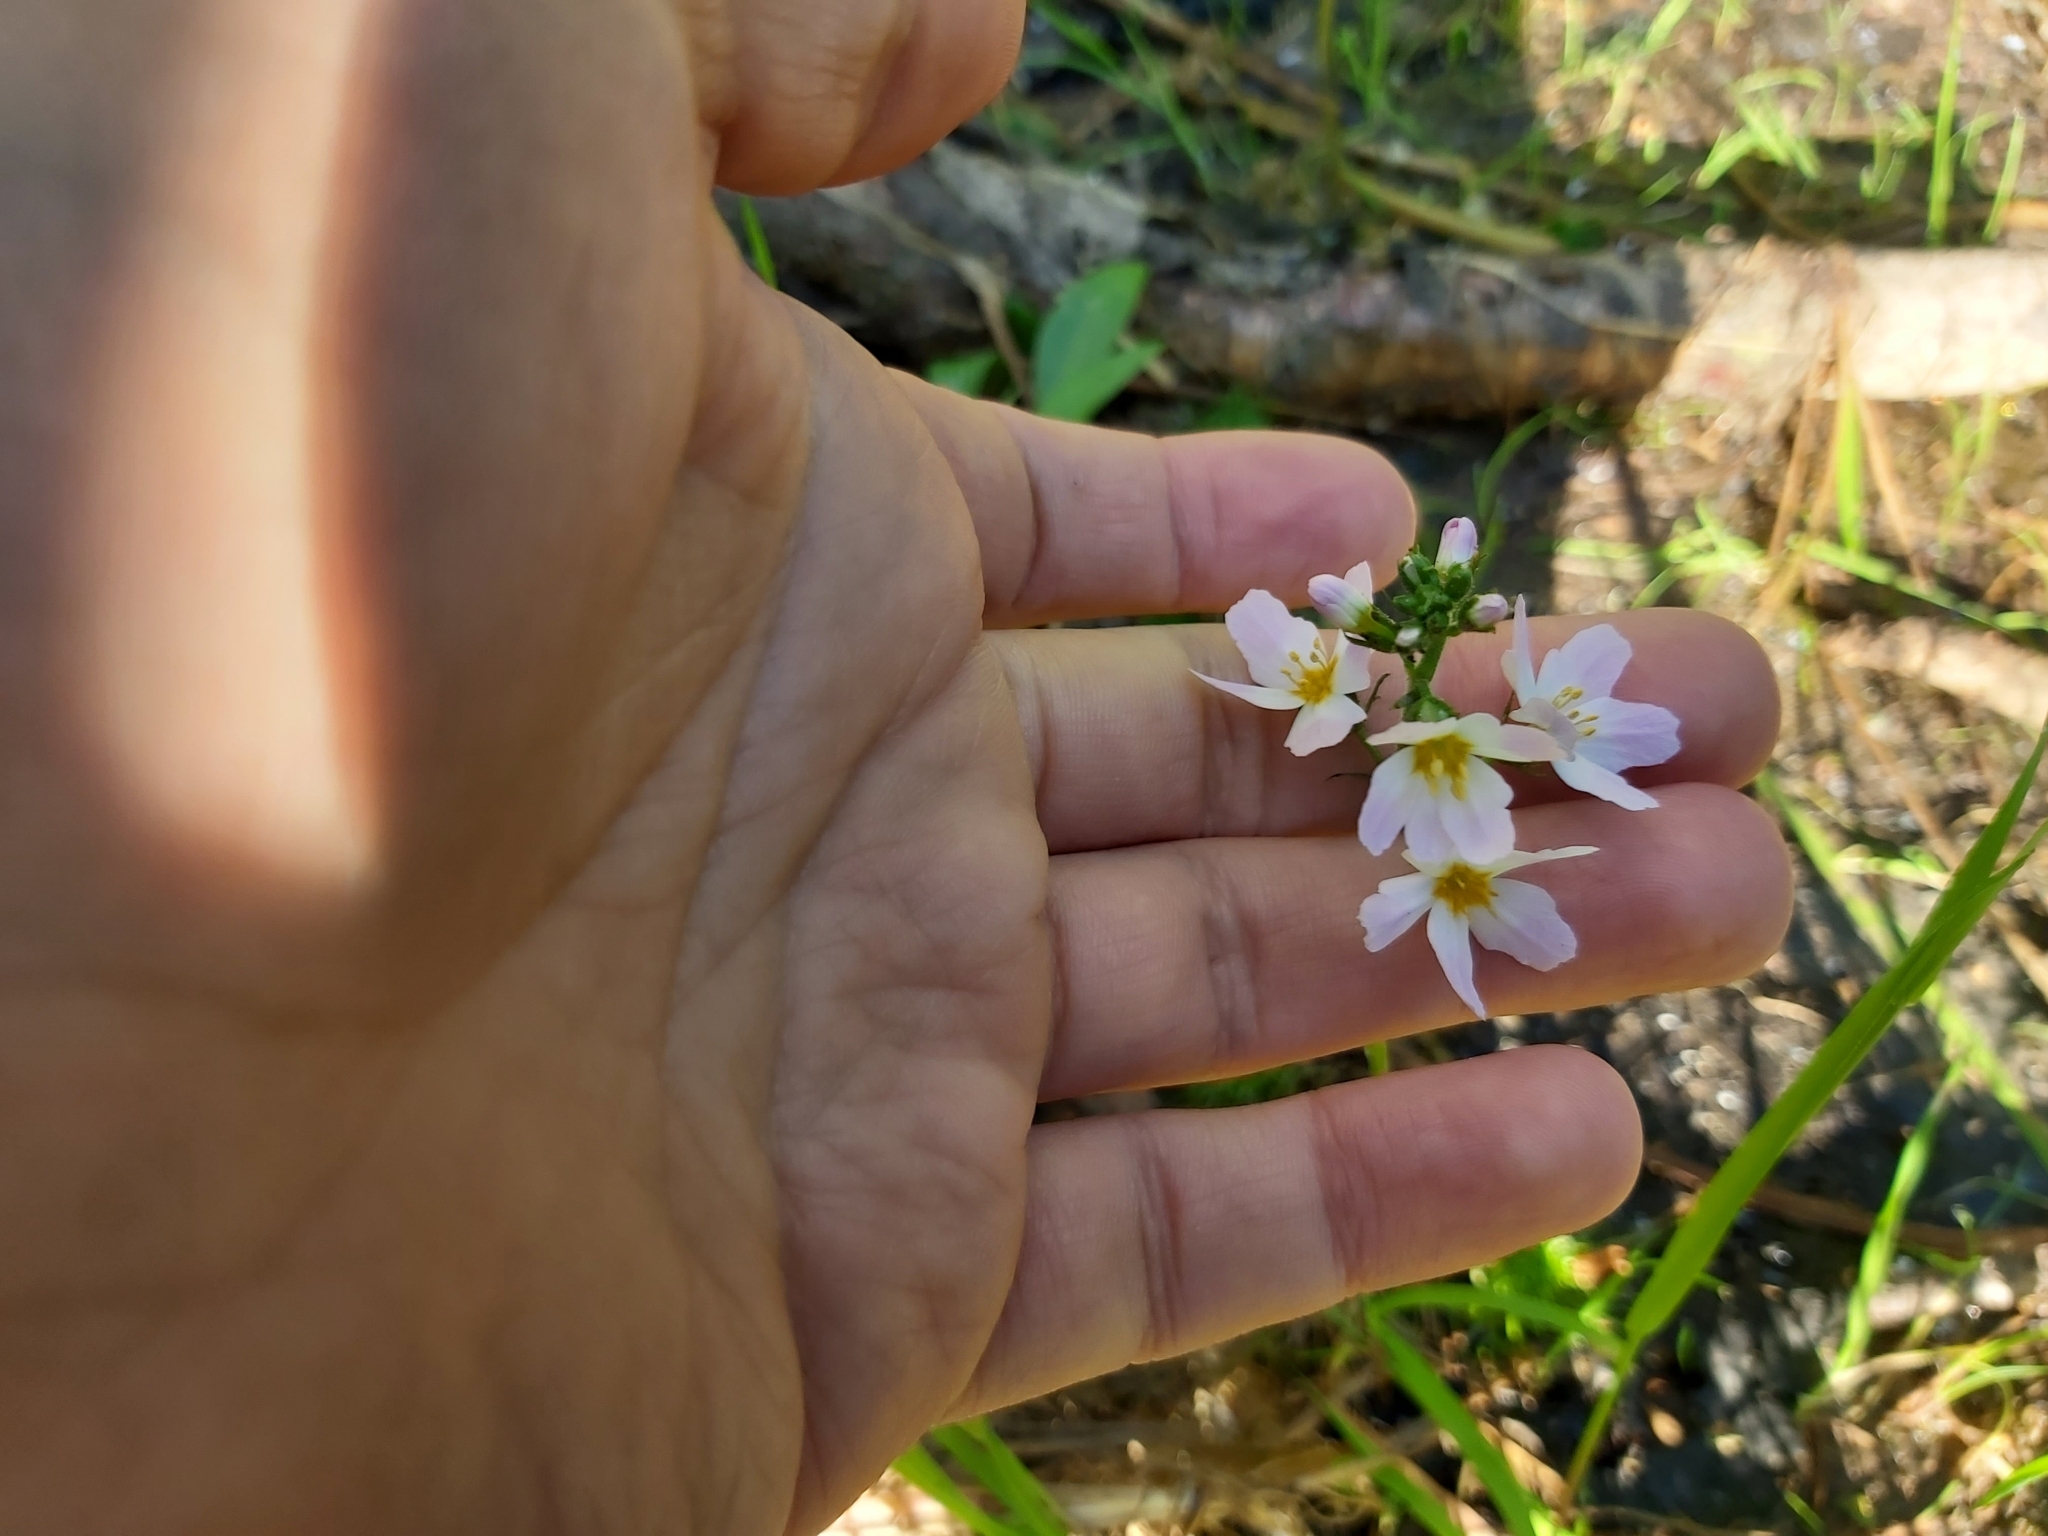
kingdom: Plantae
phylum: Tracheophyta
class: Magnoliopsida
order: Ericales
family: Primulaceae
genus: Hottonia
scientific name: Hottonia palustris
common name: Water-violet
